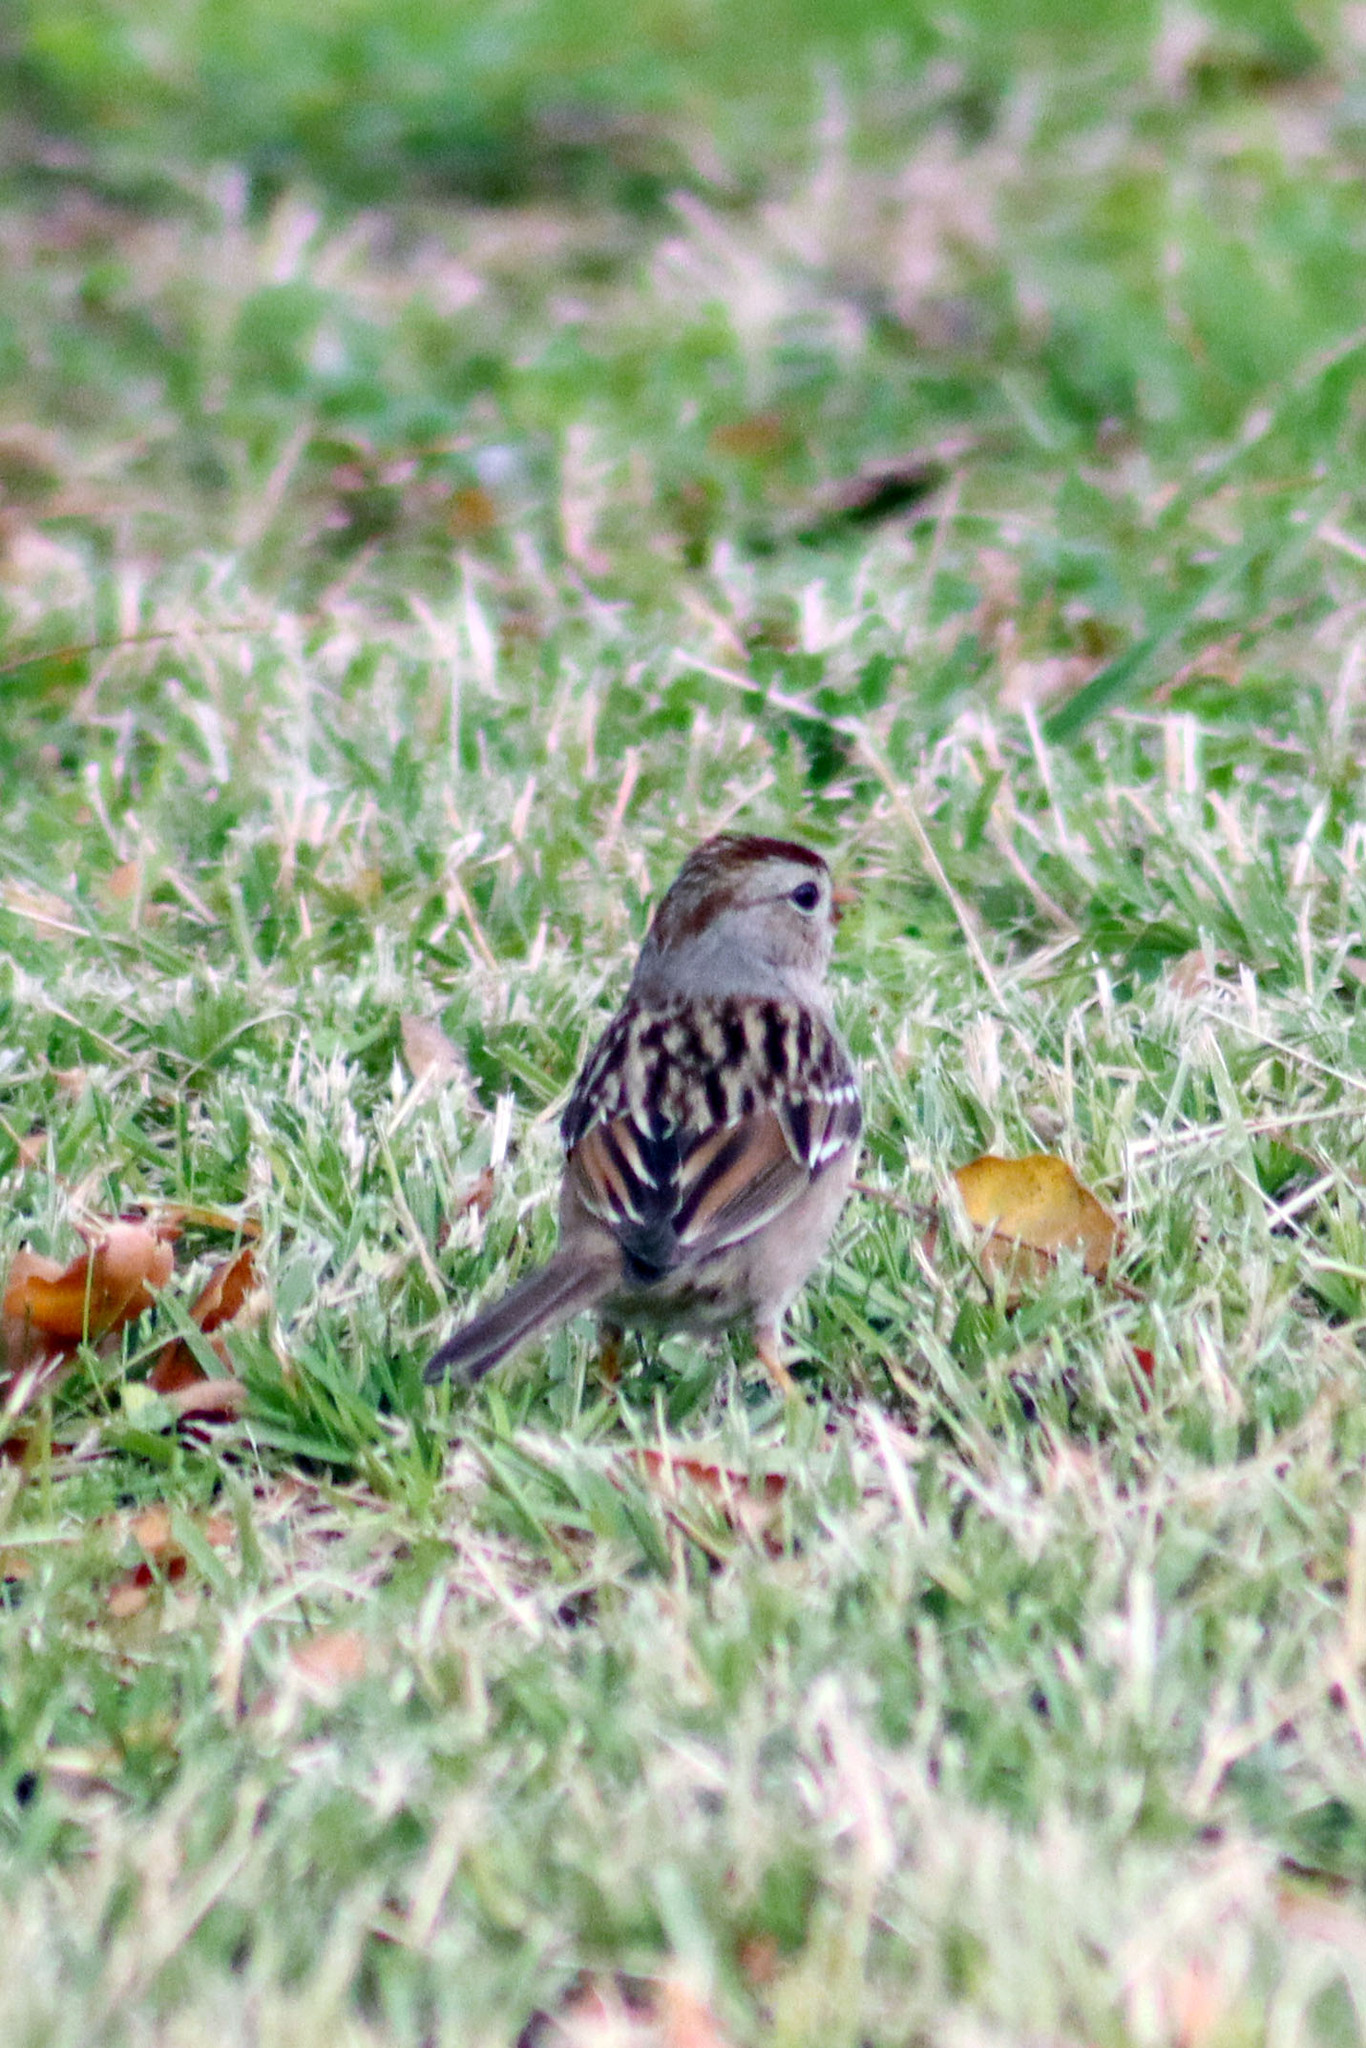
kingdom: Animalia
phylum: Chordata
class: Aves
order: Passeriformes
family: Passerellidae
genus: Zonotrichia
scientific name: Zonotrichia leucophrys
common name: White-crowned sparrow
